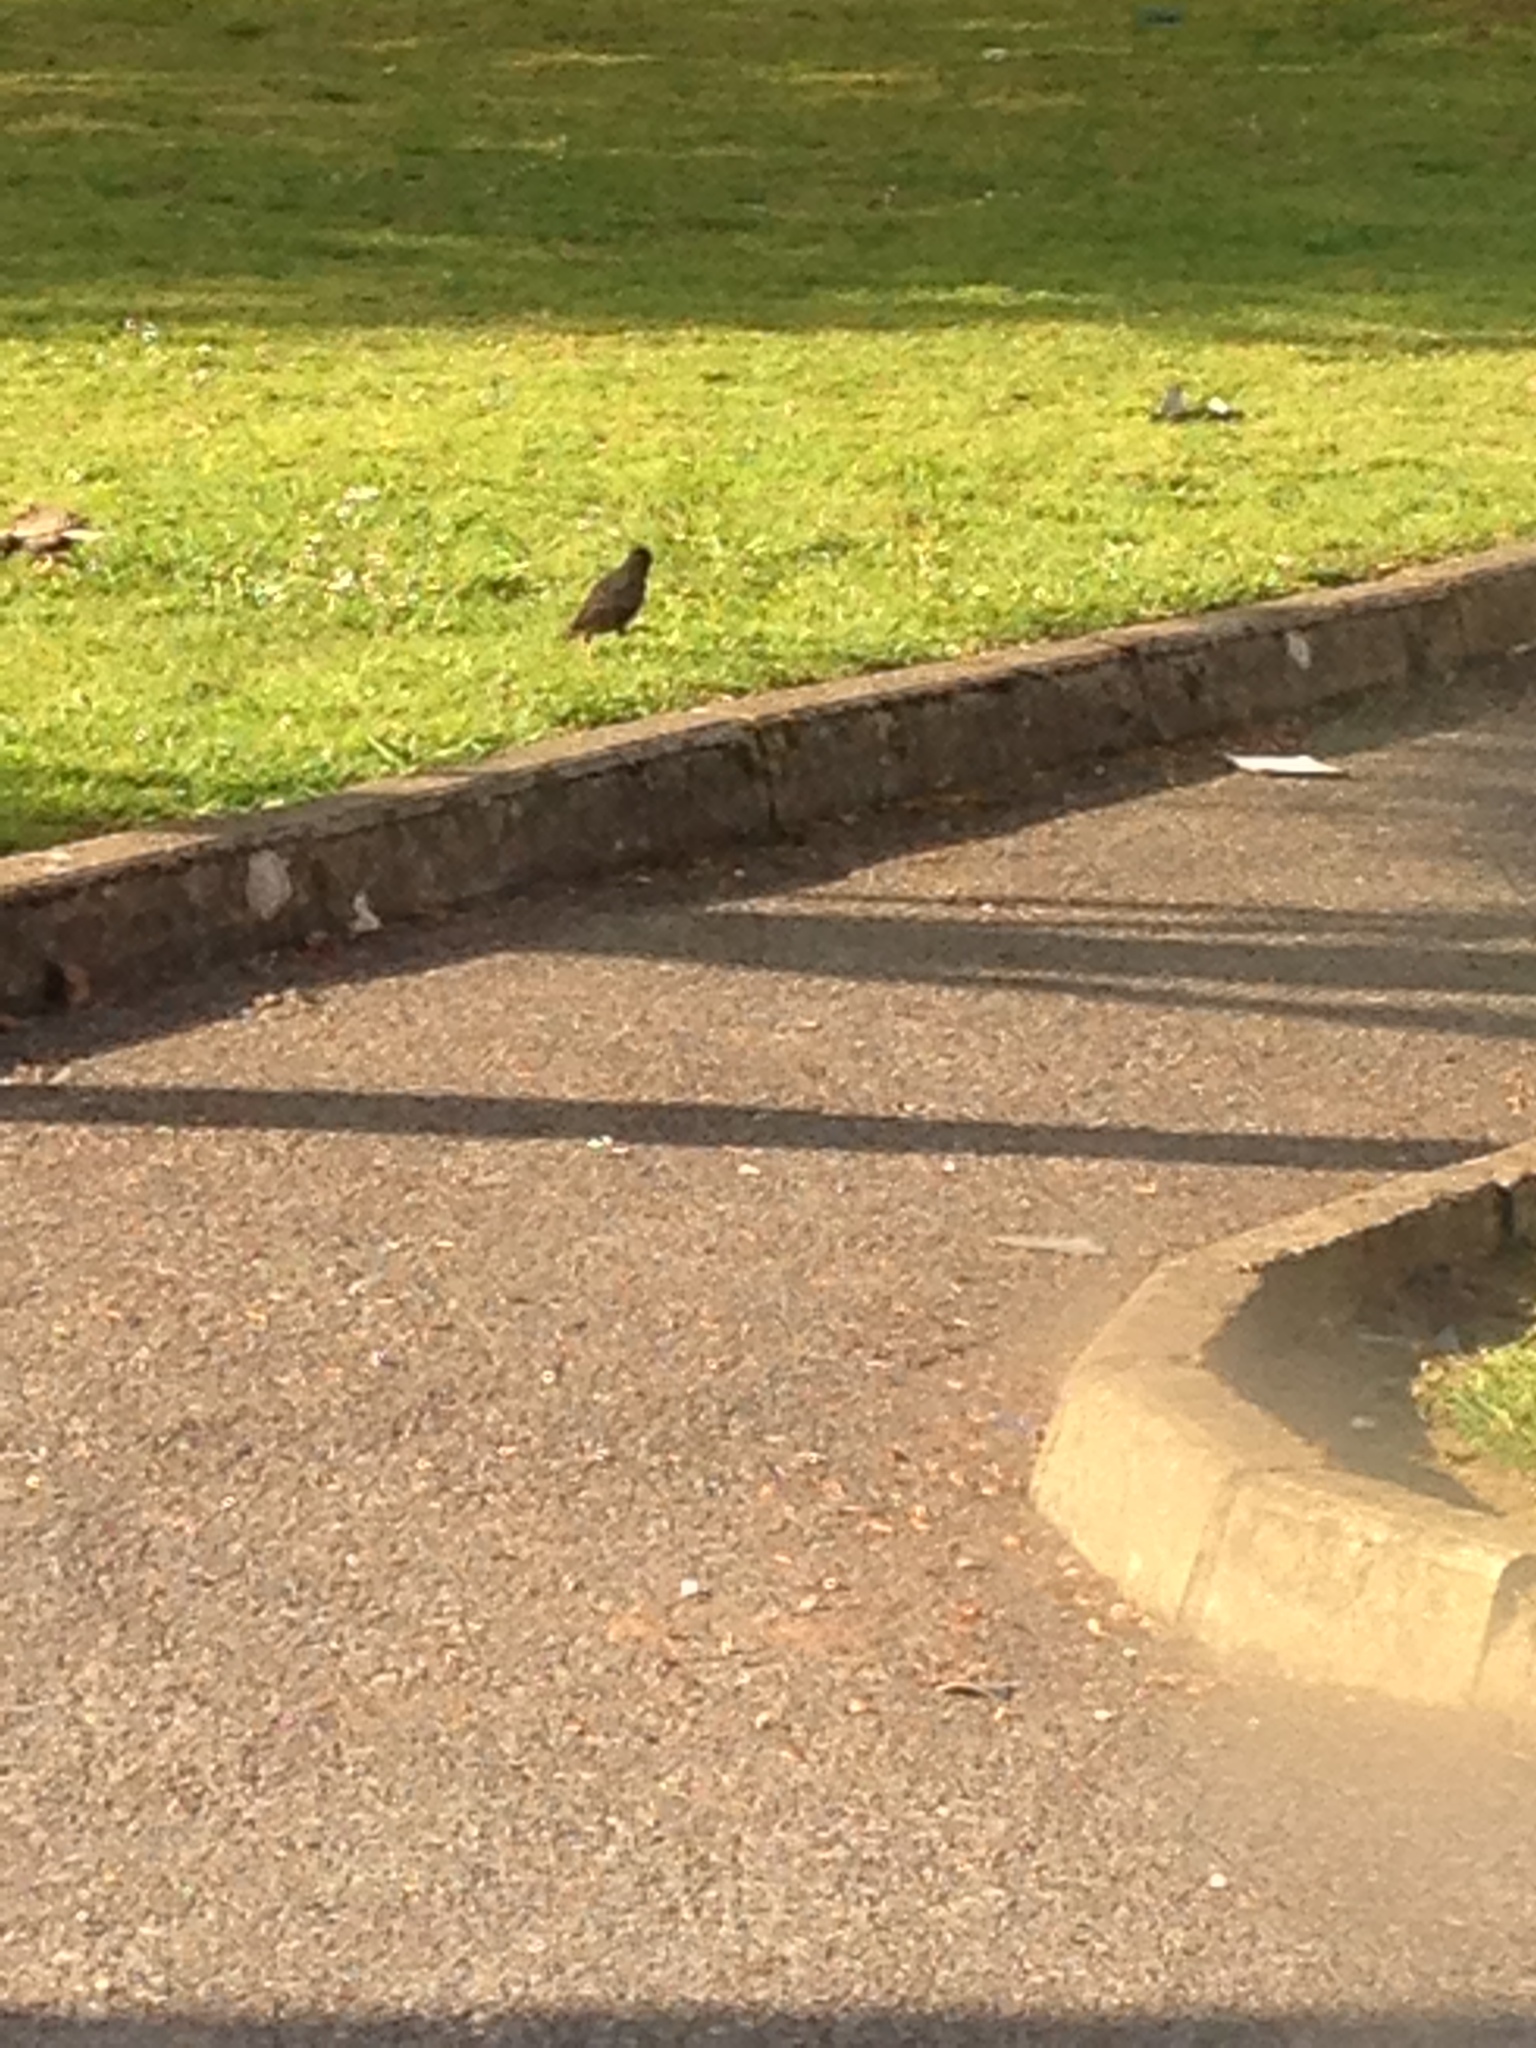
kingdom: Animalia
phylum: Chordata
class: Aves
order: Passeriformes
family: Sturnidae
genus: Sturnus
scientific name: Sturnus vulgaris
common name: Common starling
